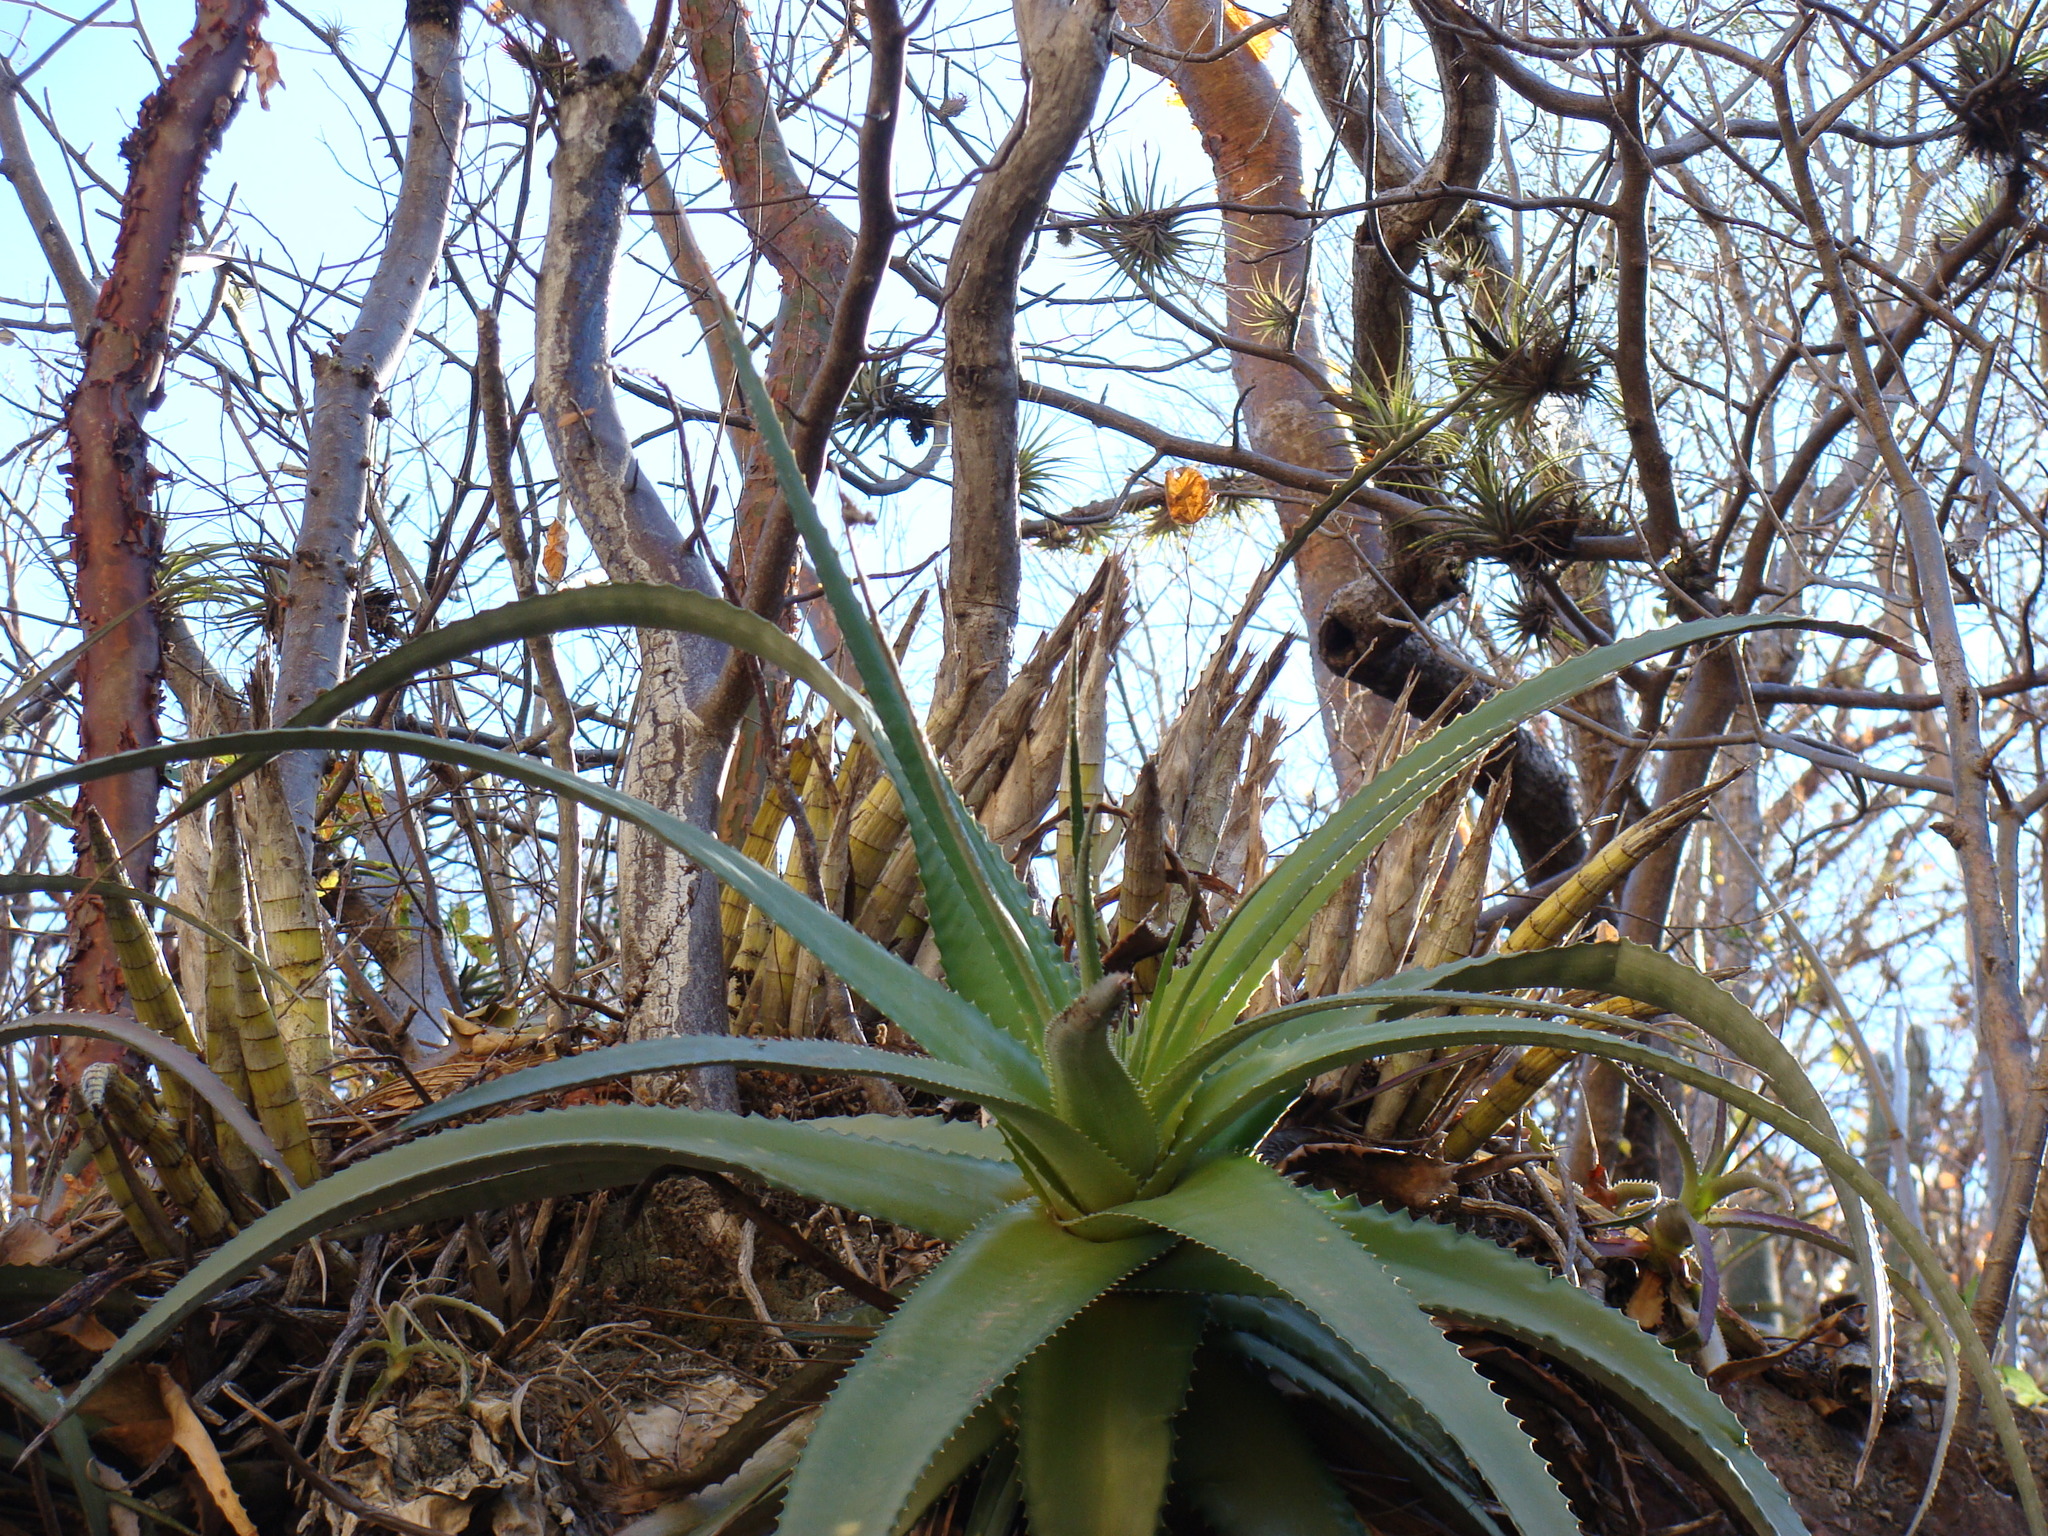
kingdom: Plantae
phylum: Tracheophyta
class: Liliopsida
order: Poales
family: Bromeliaceae
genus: Hechtia
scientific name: Hechtia rubicunda
